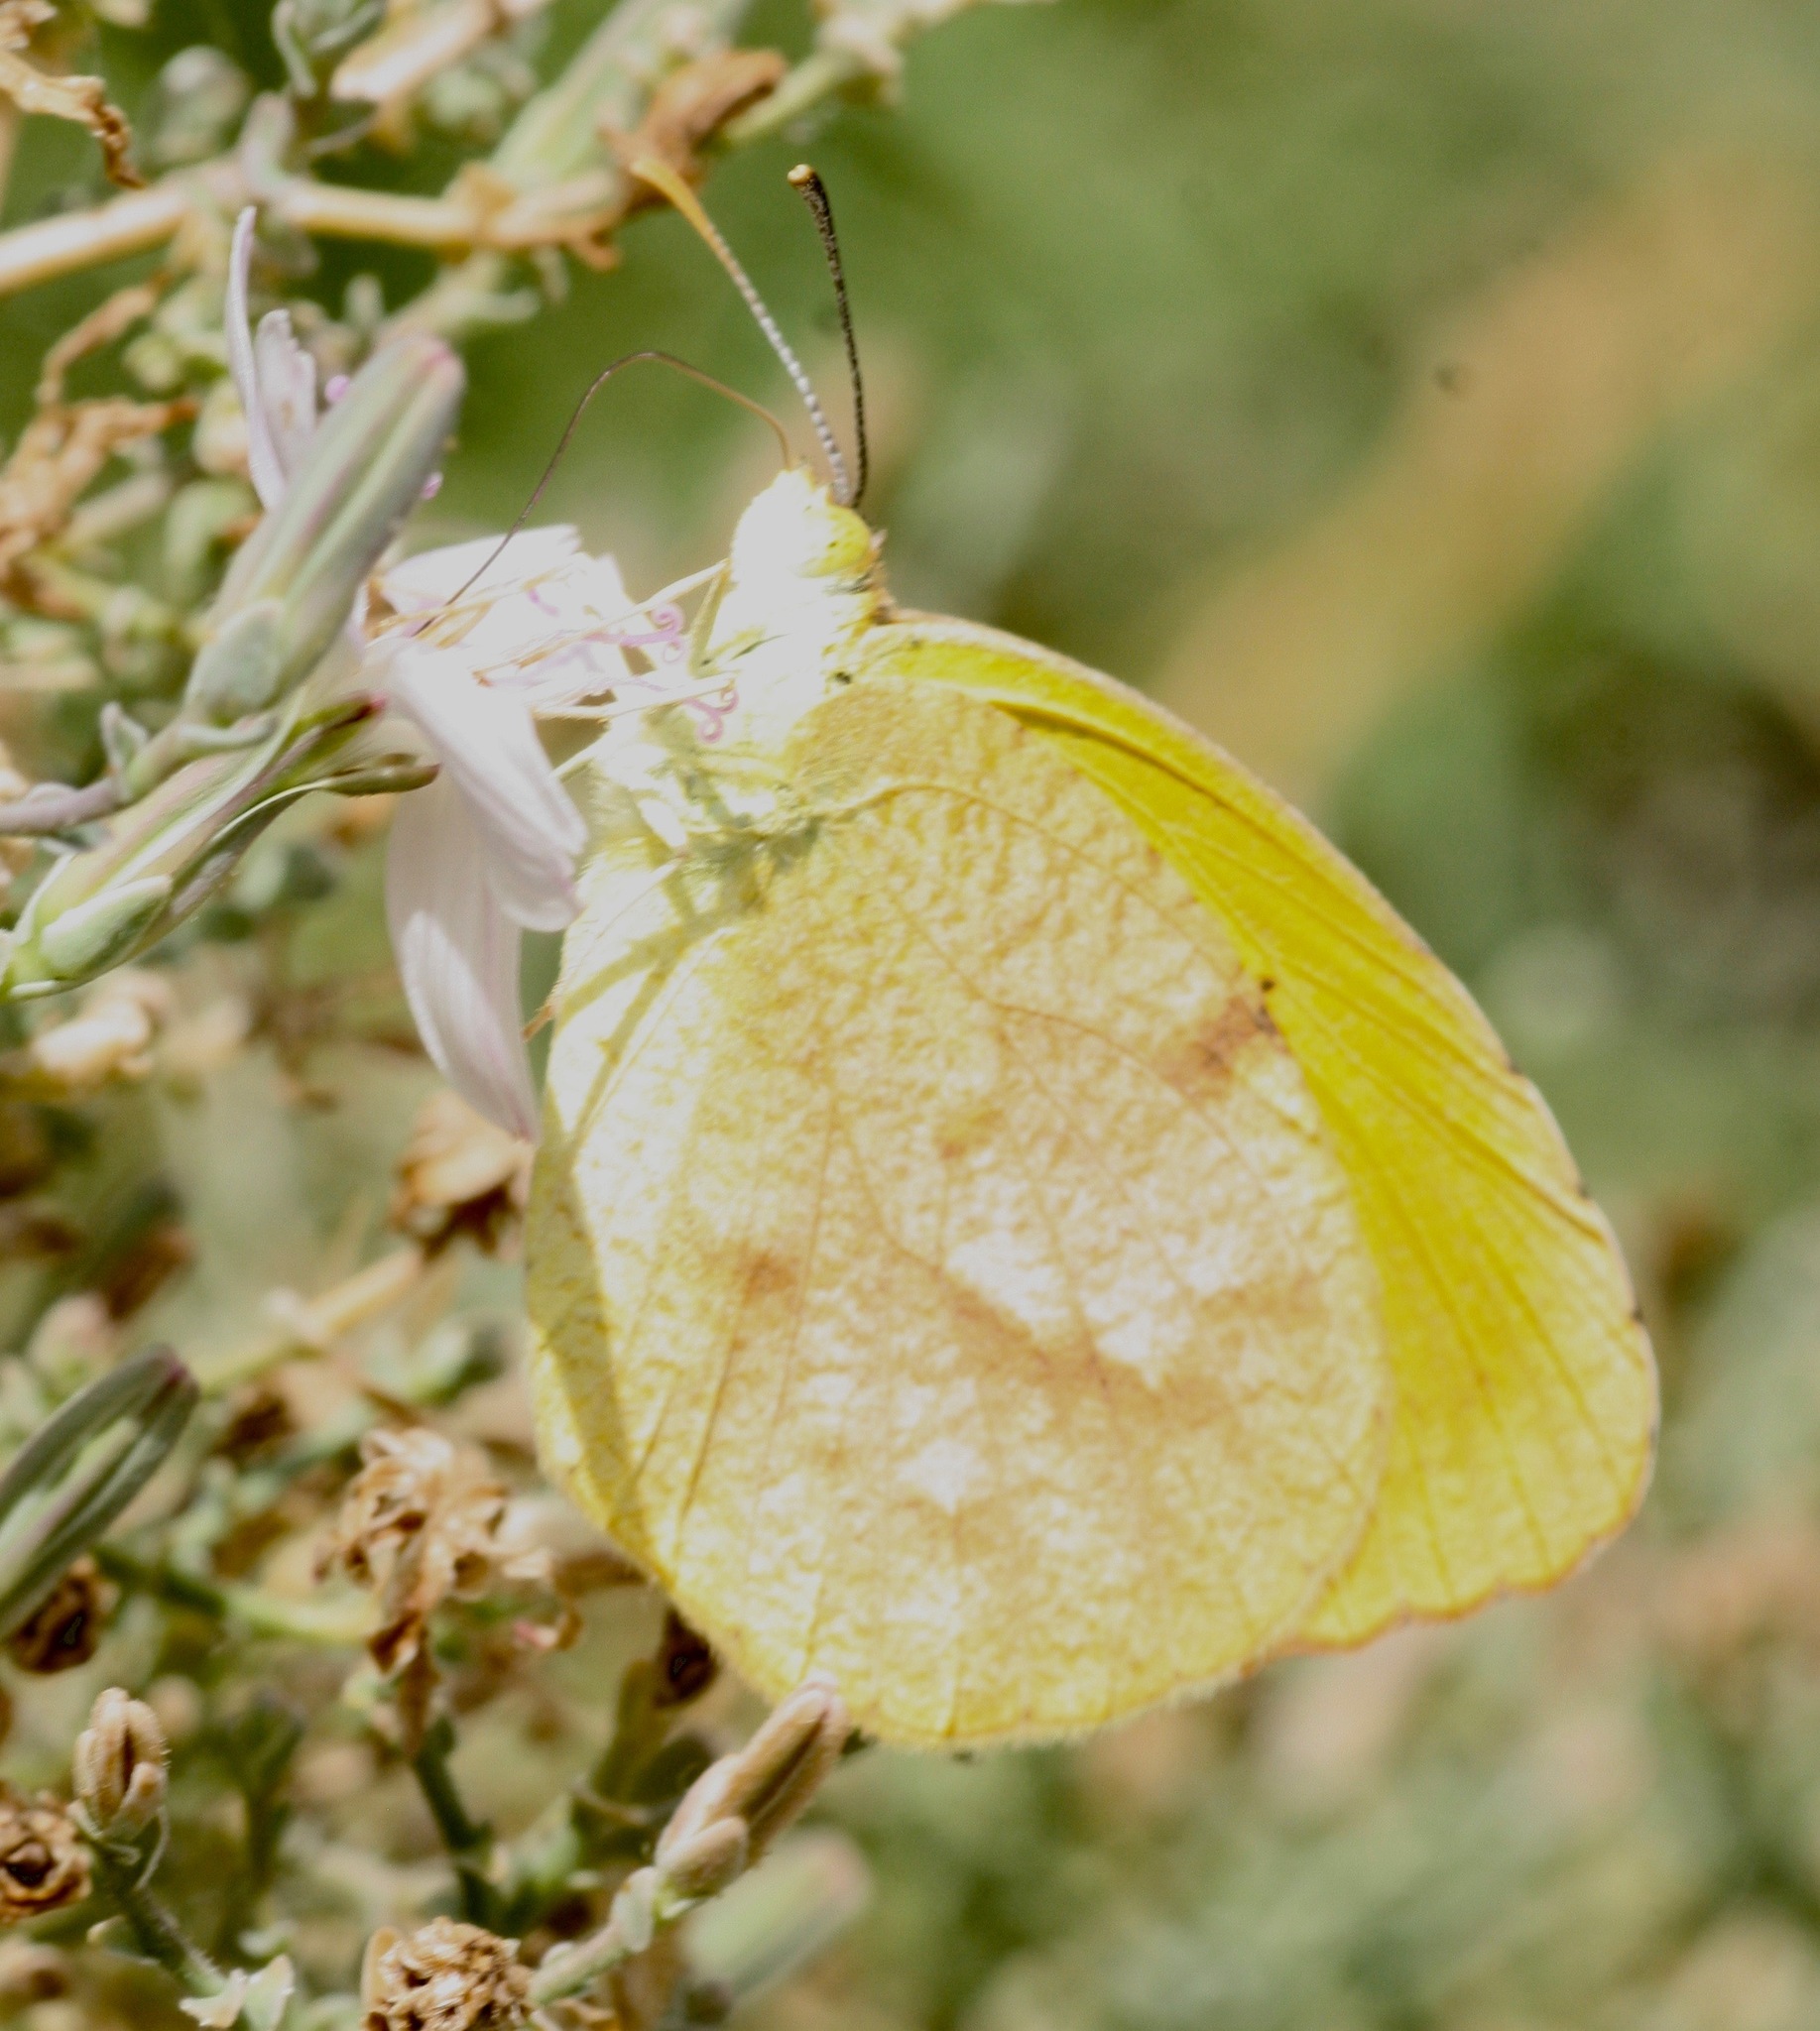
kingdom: Animalia
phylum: Arthropoda
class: Insecta
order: Lepidoptera
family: Pieridae
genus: Abaeis
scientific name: Abaeis nicippe
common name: Sleepy orange
